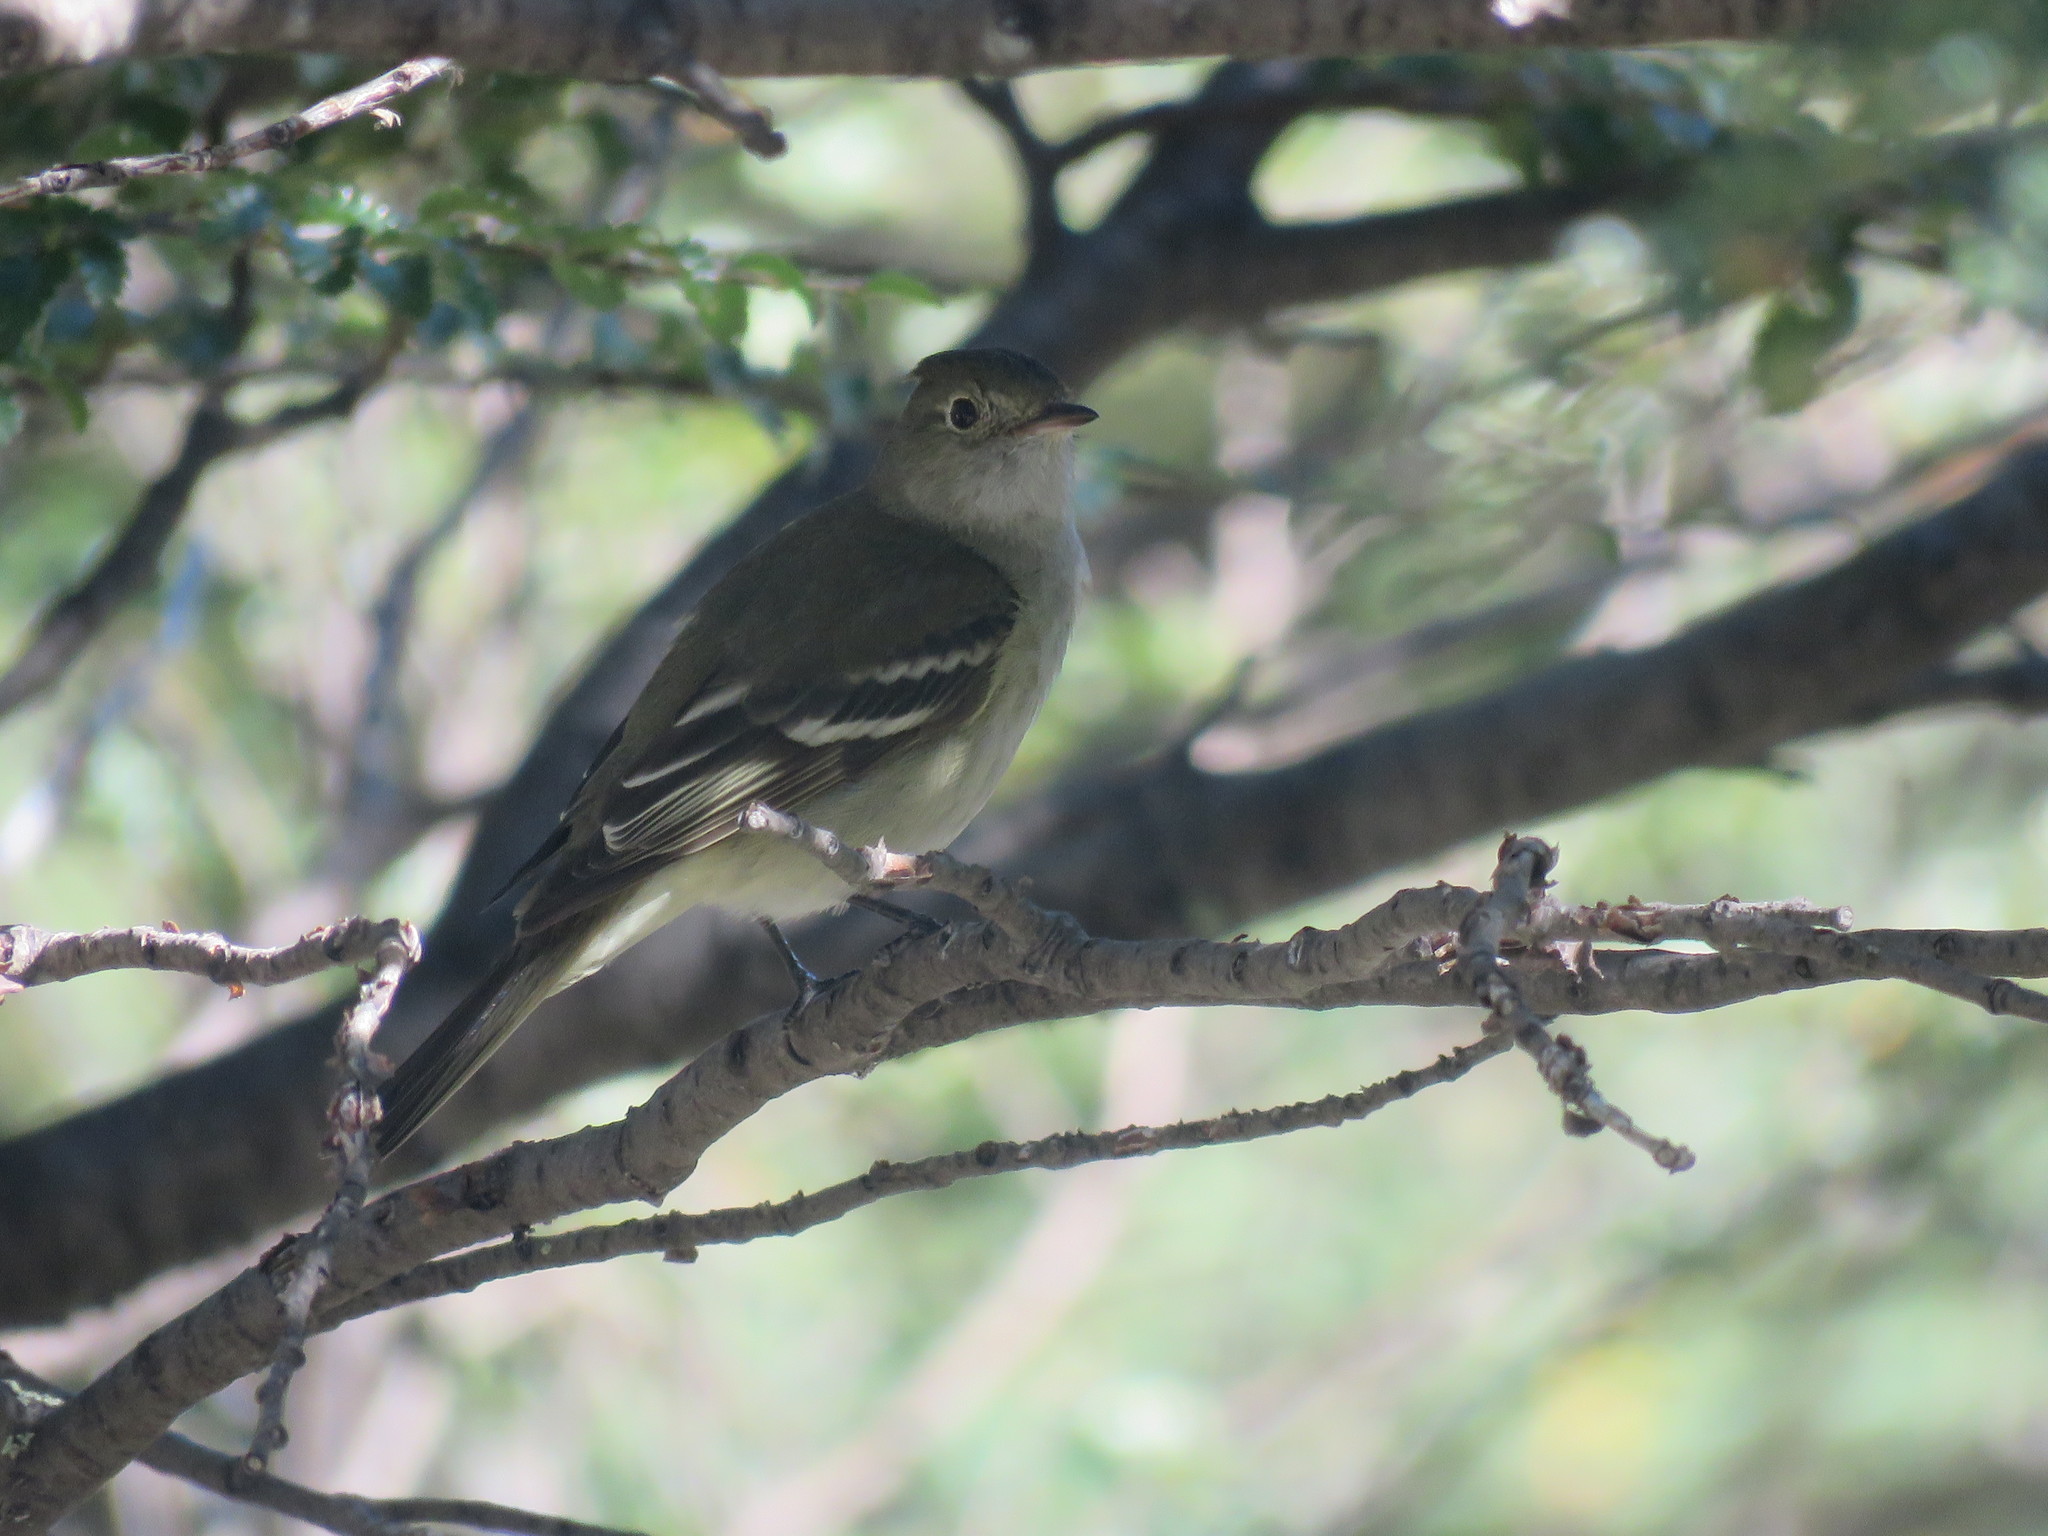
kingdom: Animalia
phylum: Chordata
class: Aves
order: Passeriformes
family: Tyrannidae
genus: Elaenia
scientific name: Elaenia albiceps
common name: White-crested elaenia
